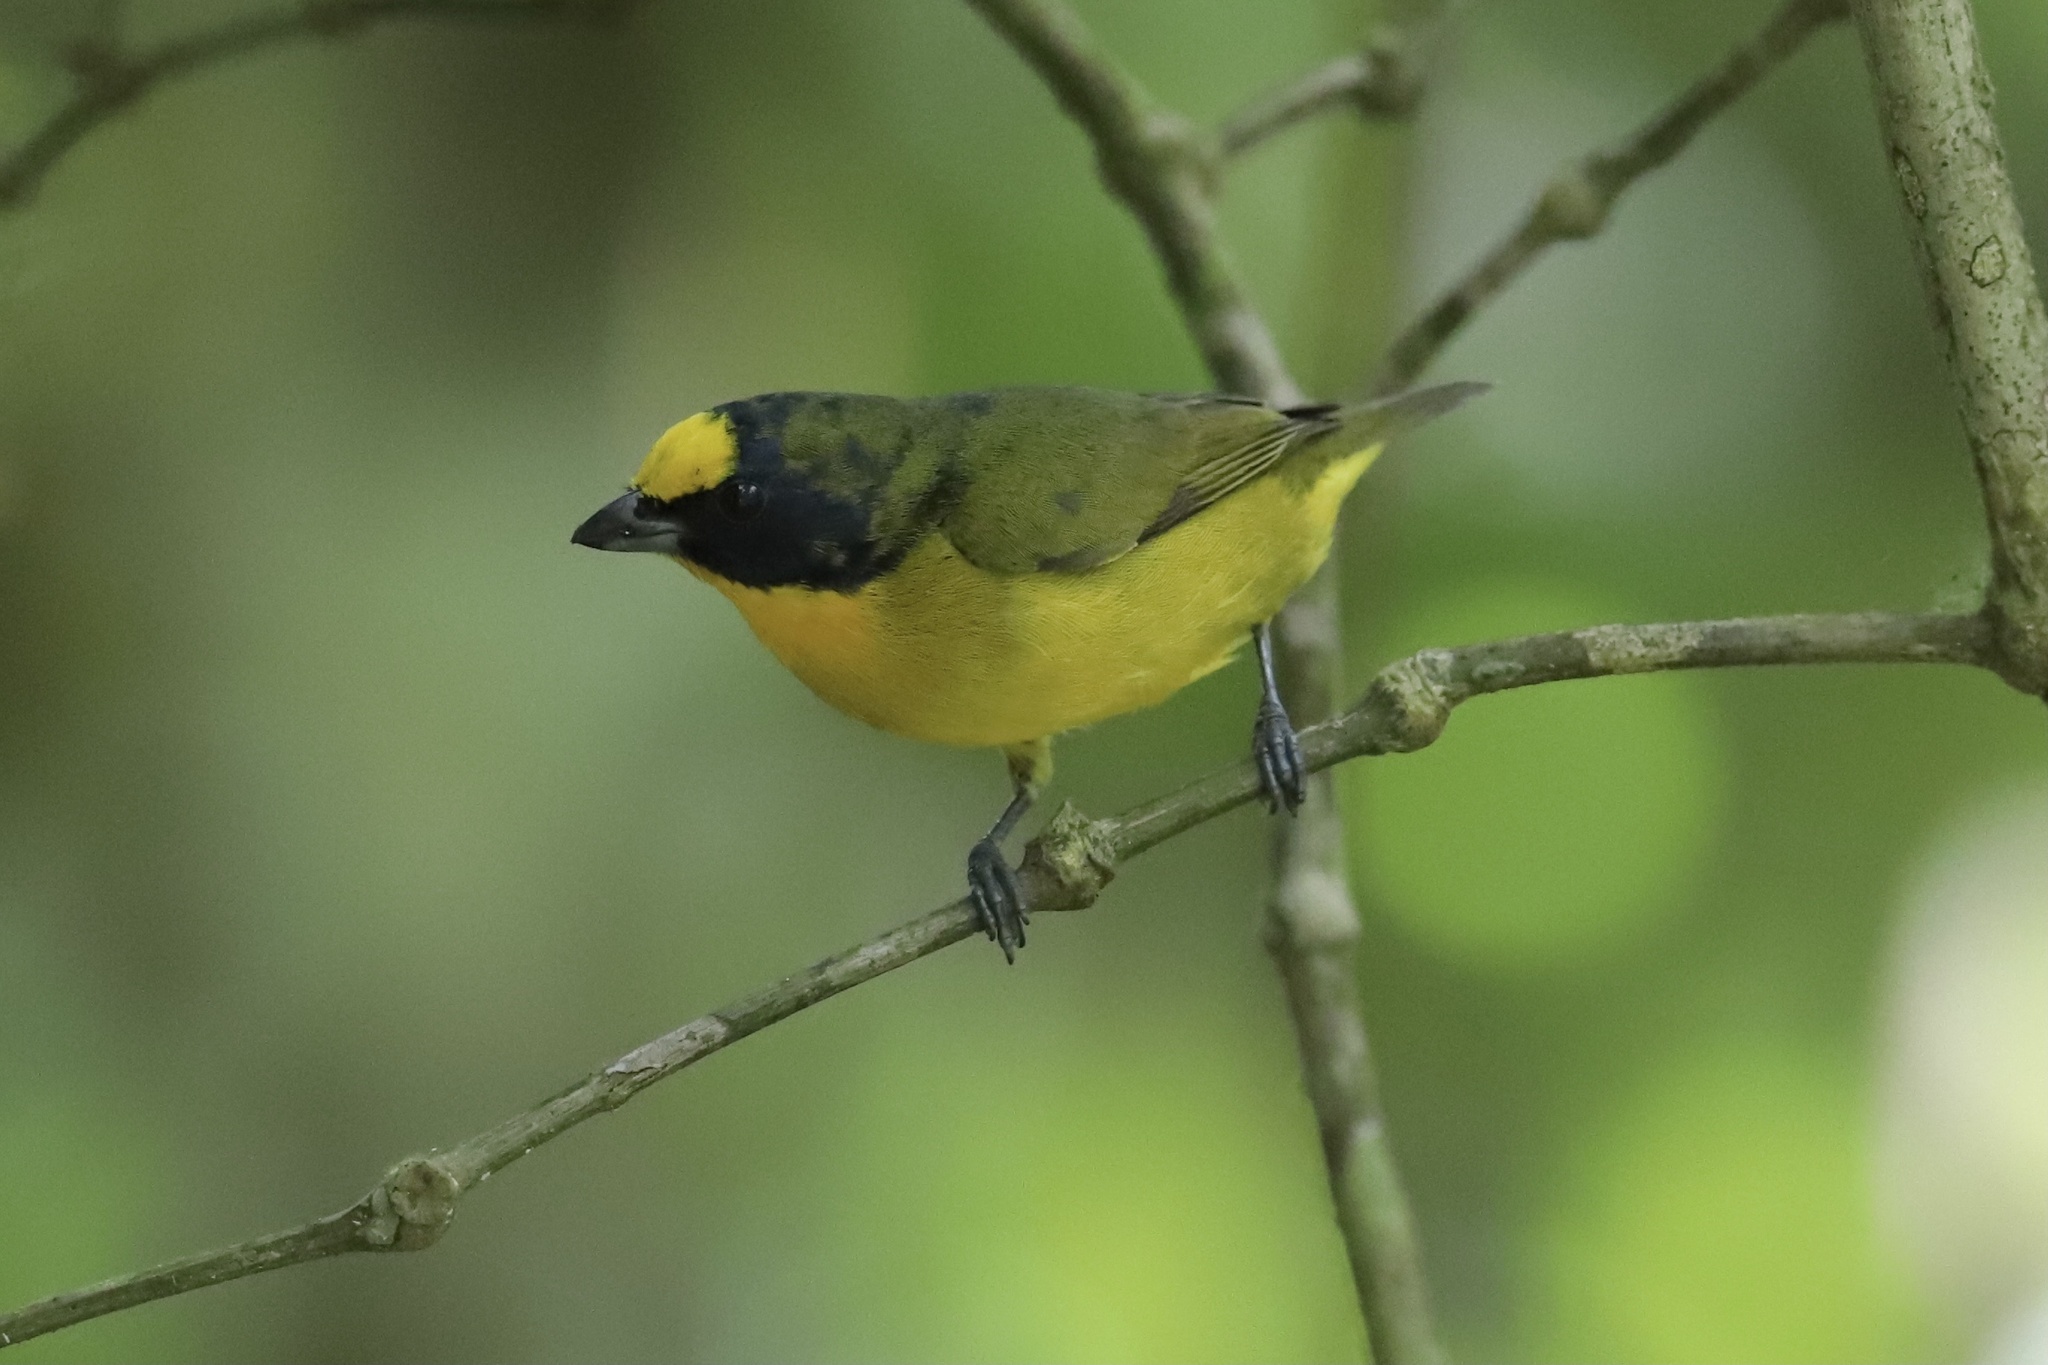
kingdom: Animalia
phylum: Chordata
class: Aves
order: Passeriformes
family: Fringillidae
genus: Euphonia
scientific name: Euphonia laniirostris
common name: Thick-billed euphonia
